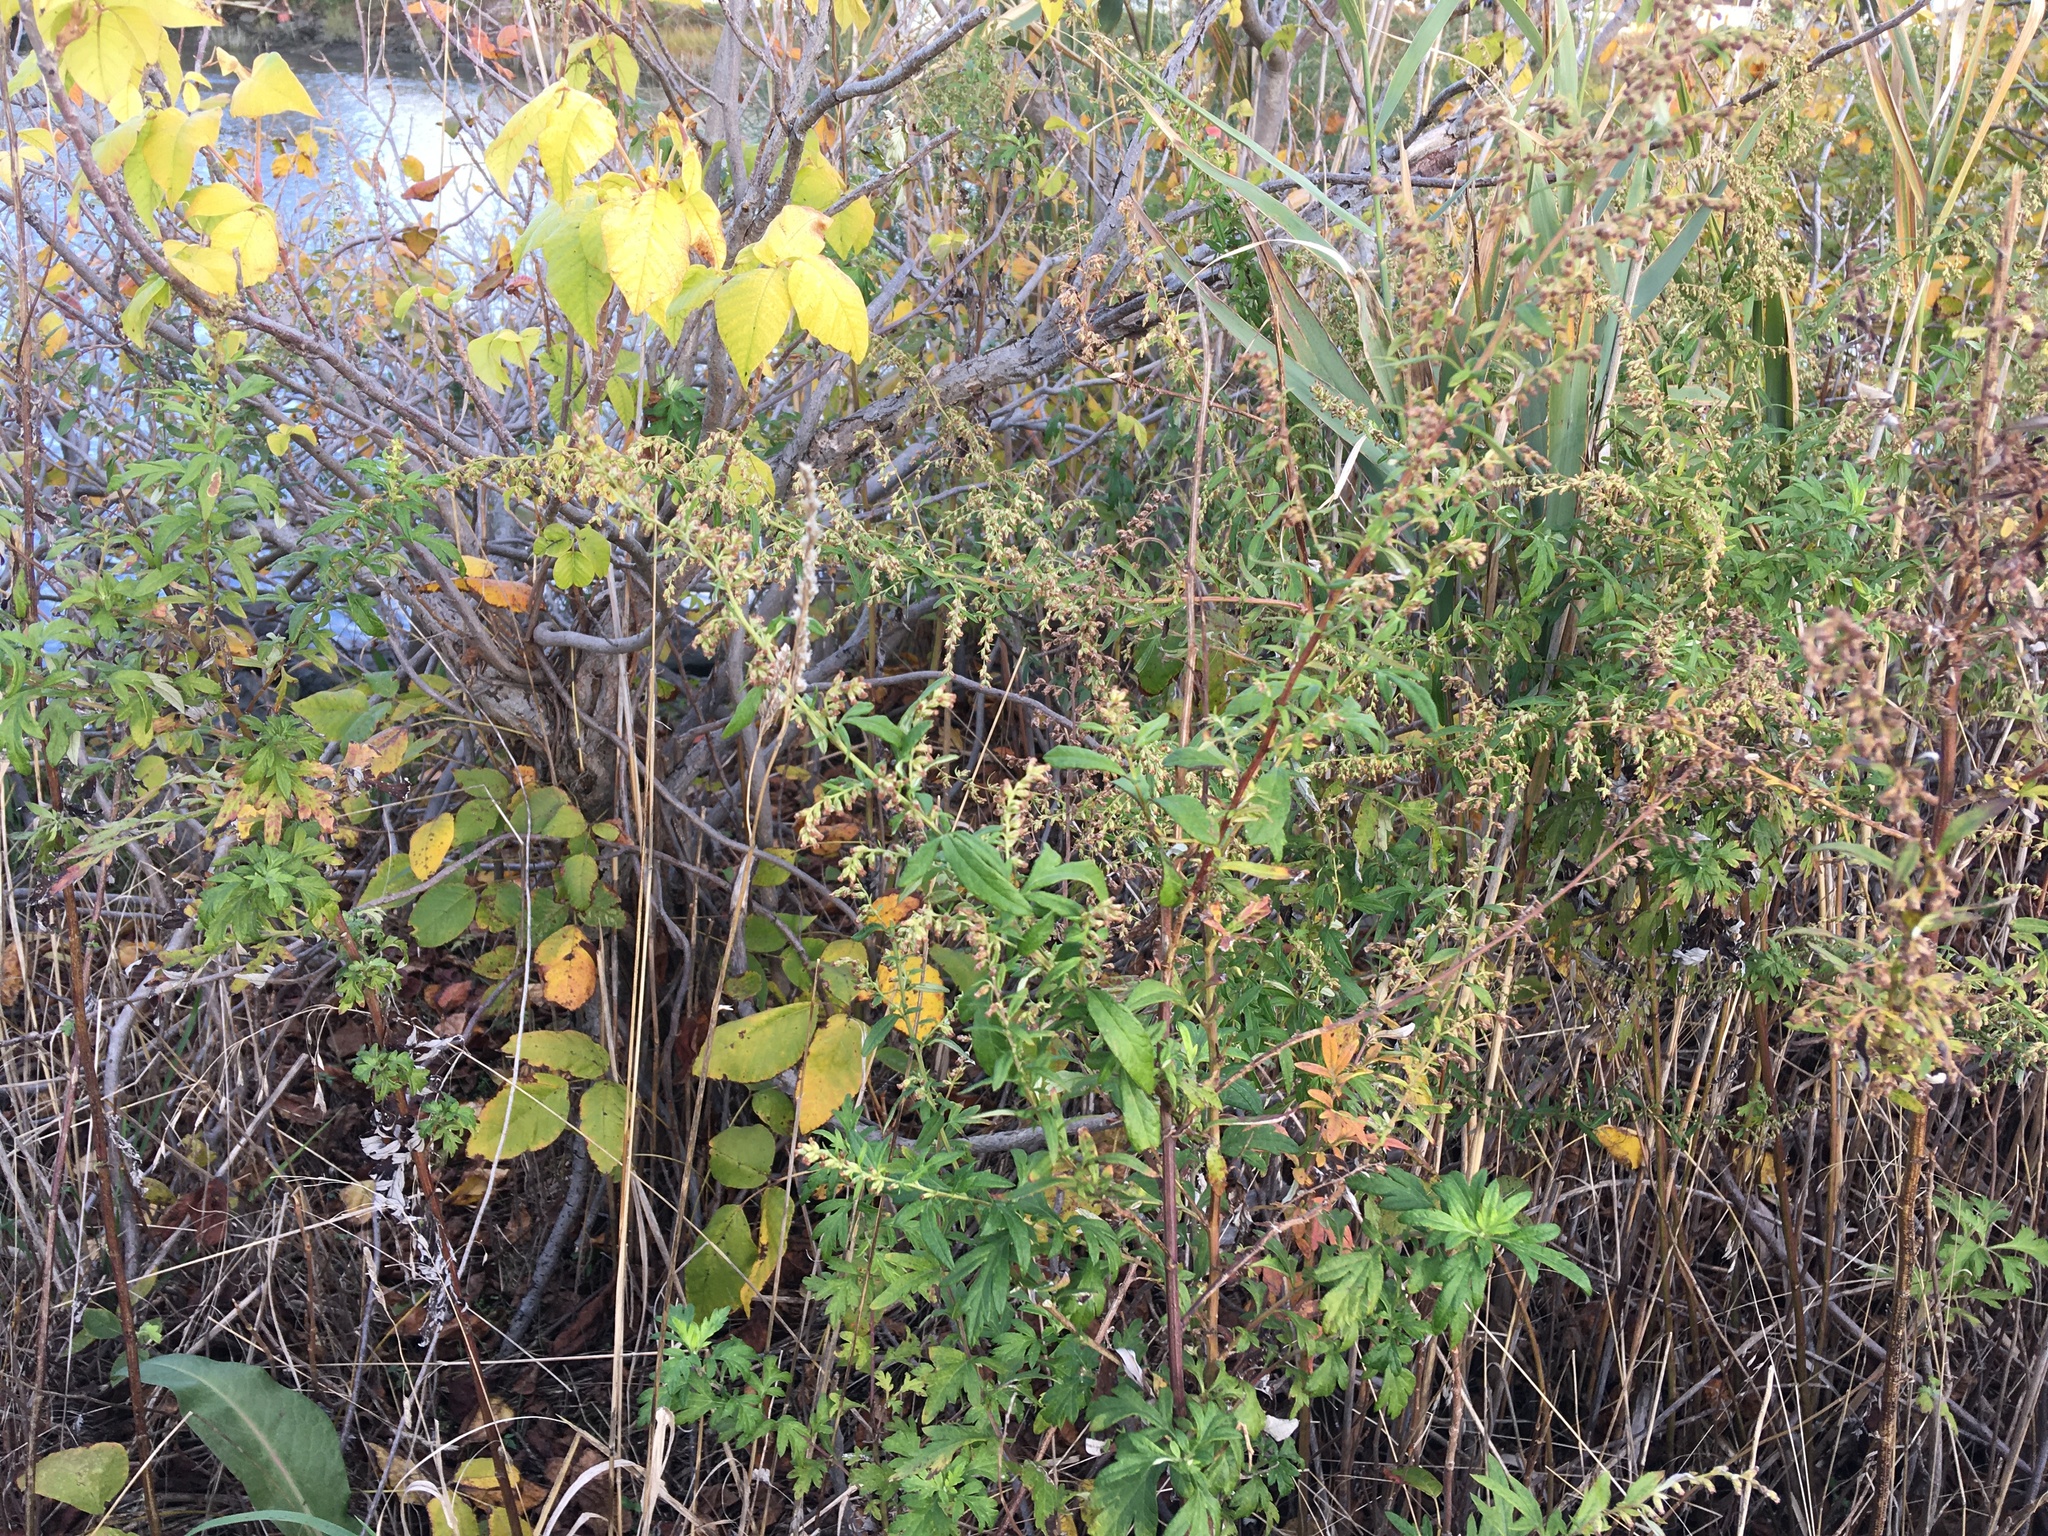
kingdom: Plantae
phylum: Tracheophyta
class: Magnoliopsida
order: Asterales
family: Asteraceae
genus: Artemisia
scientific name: Artemisia vulgaris
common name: Mugwort
